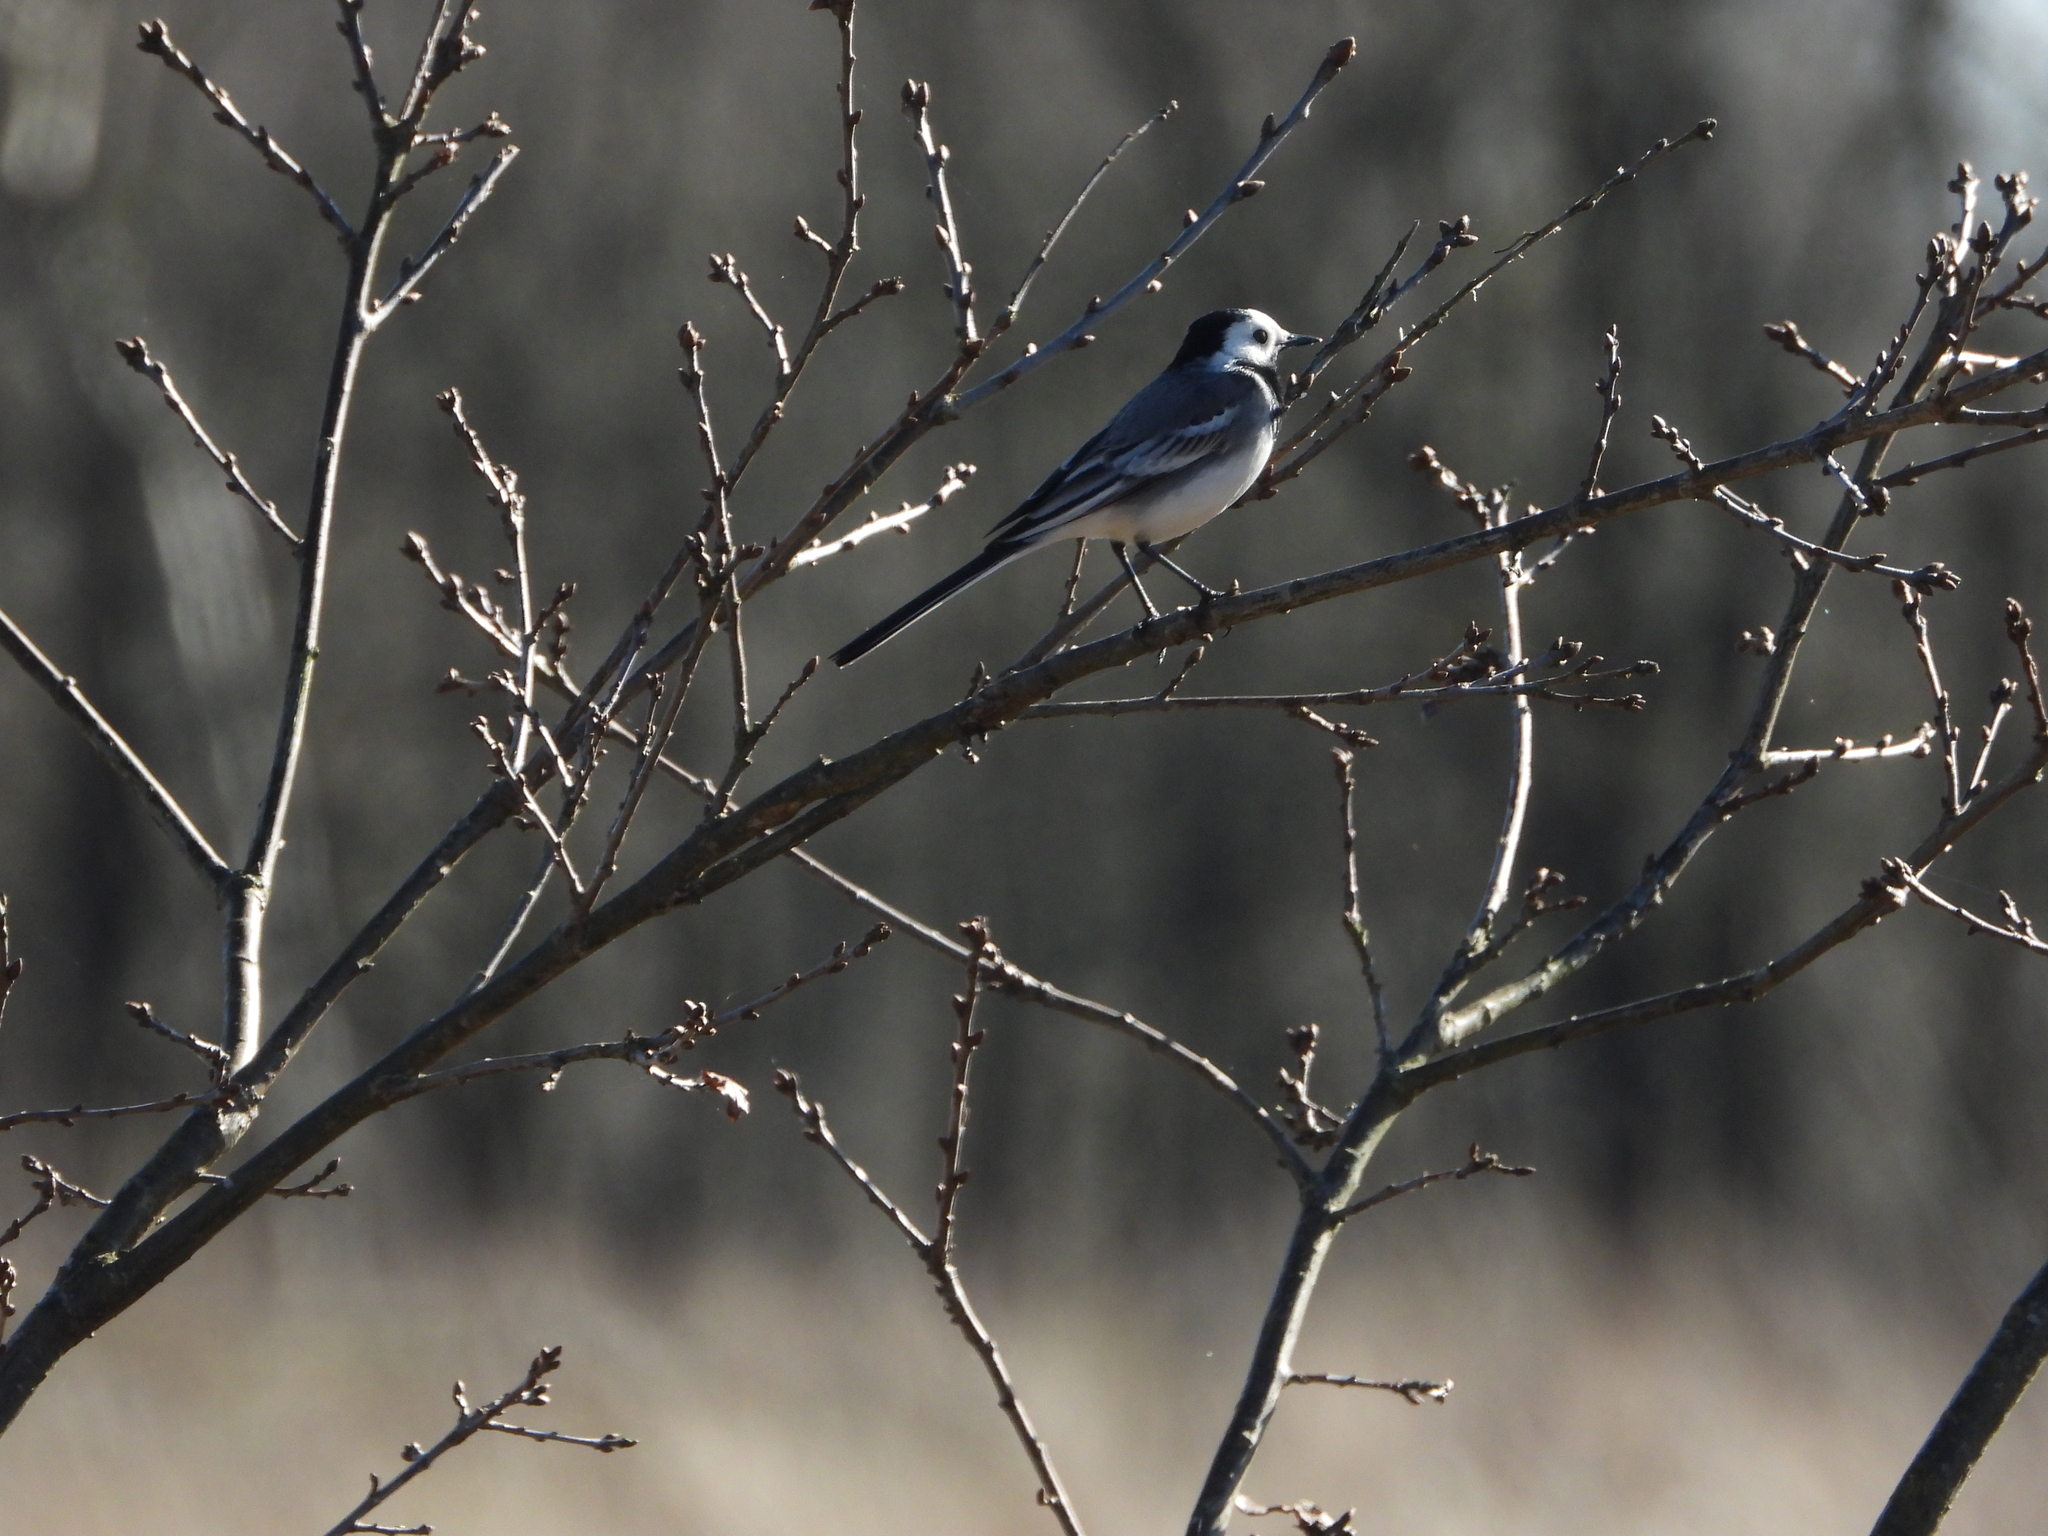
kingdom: Animalia
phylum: Chordata
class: Aves
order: Passeriformes
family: Motacillidae
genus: Motacilla
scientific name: Motacilla alba
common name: White wagtail
